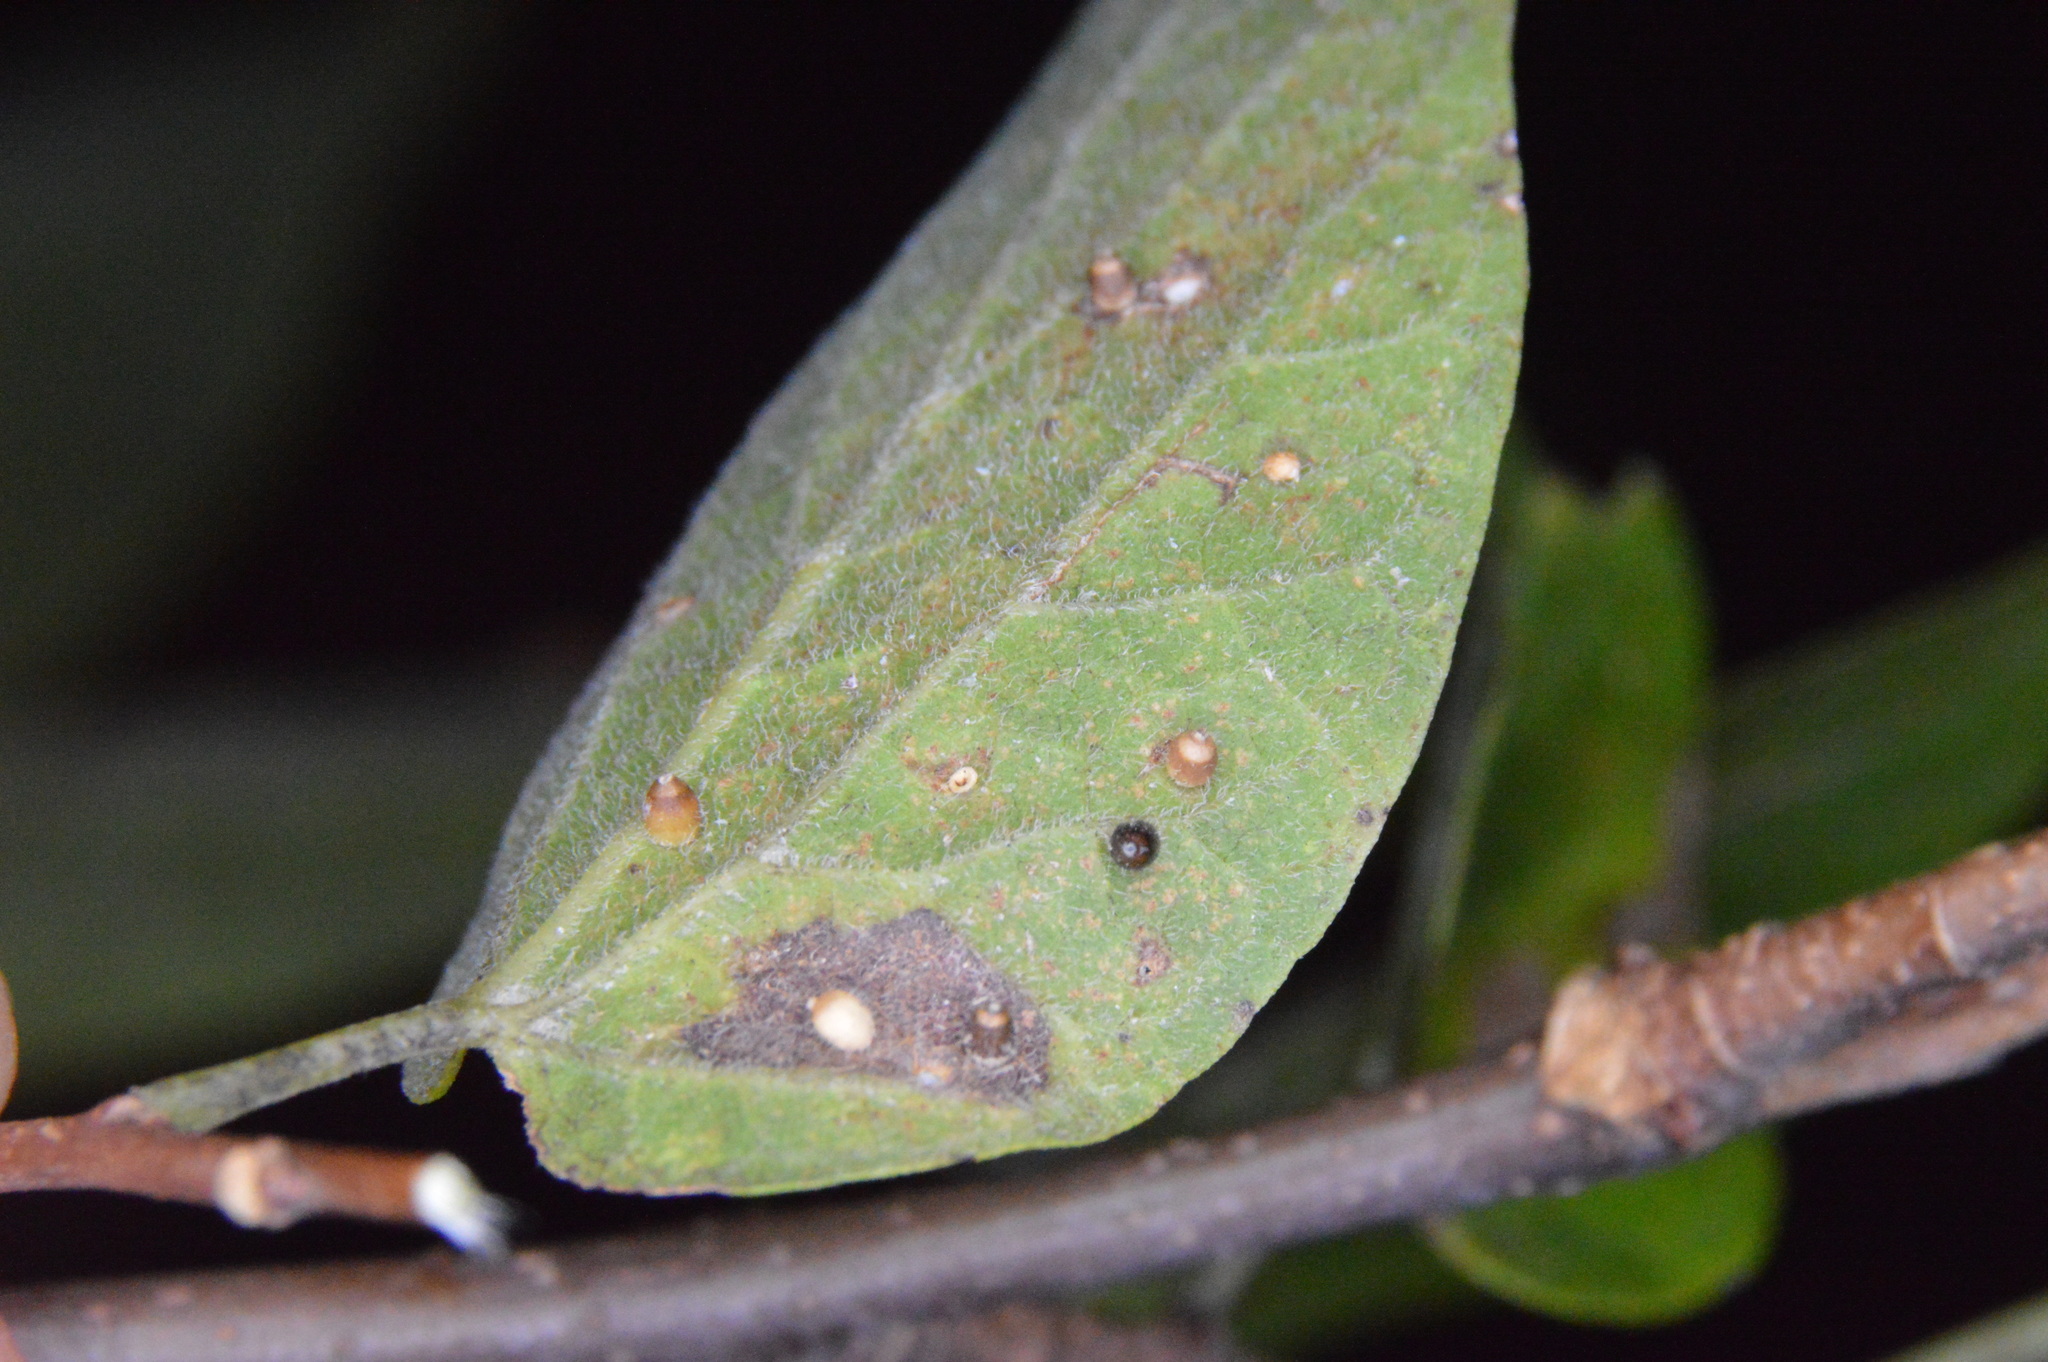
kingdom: Animalia
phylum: Arthropoda
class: Insecta
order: Diptera
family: Cecidomyiidae
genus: Celticecis
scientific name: Celticecis cupiformis
